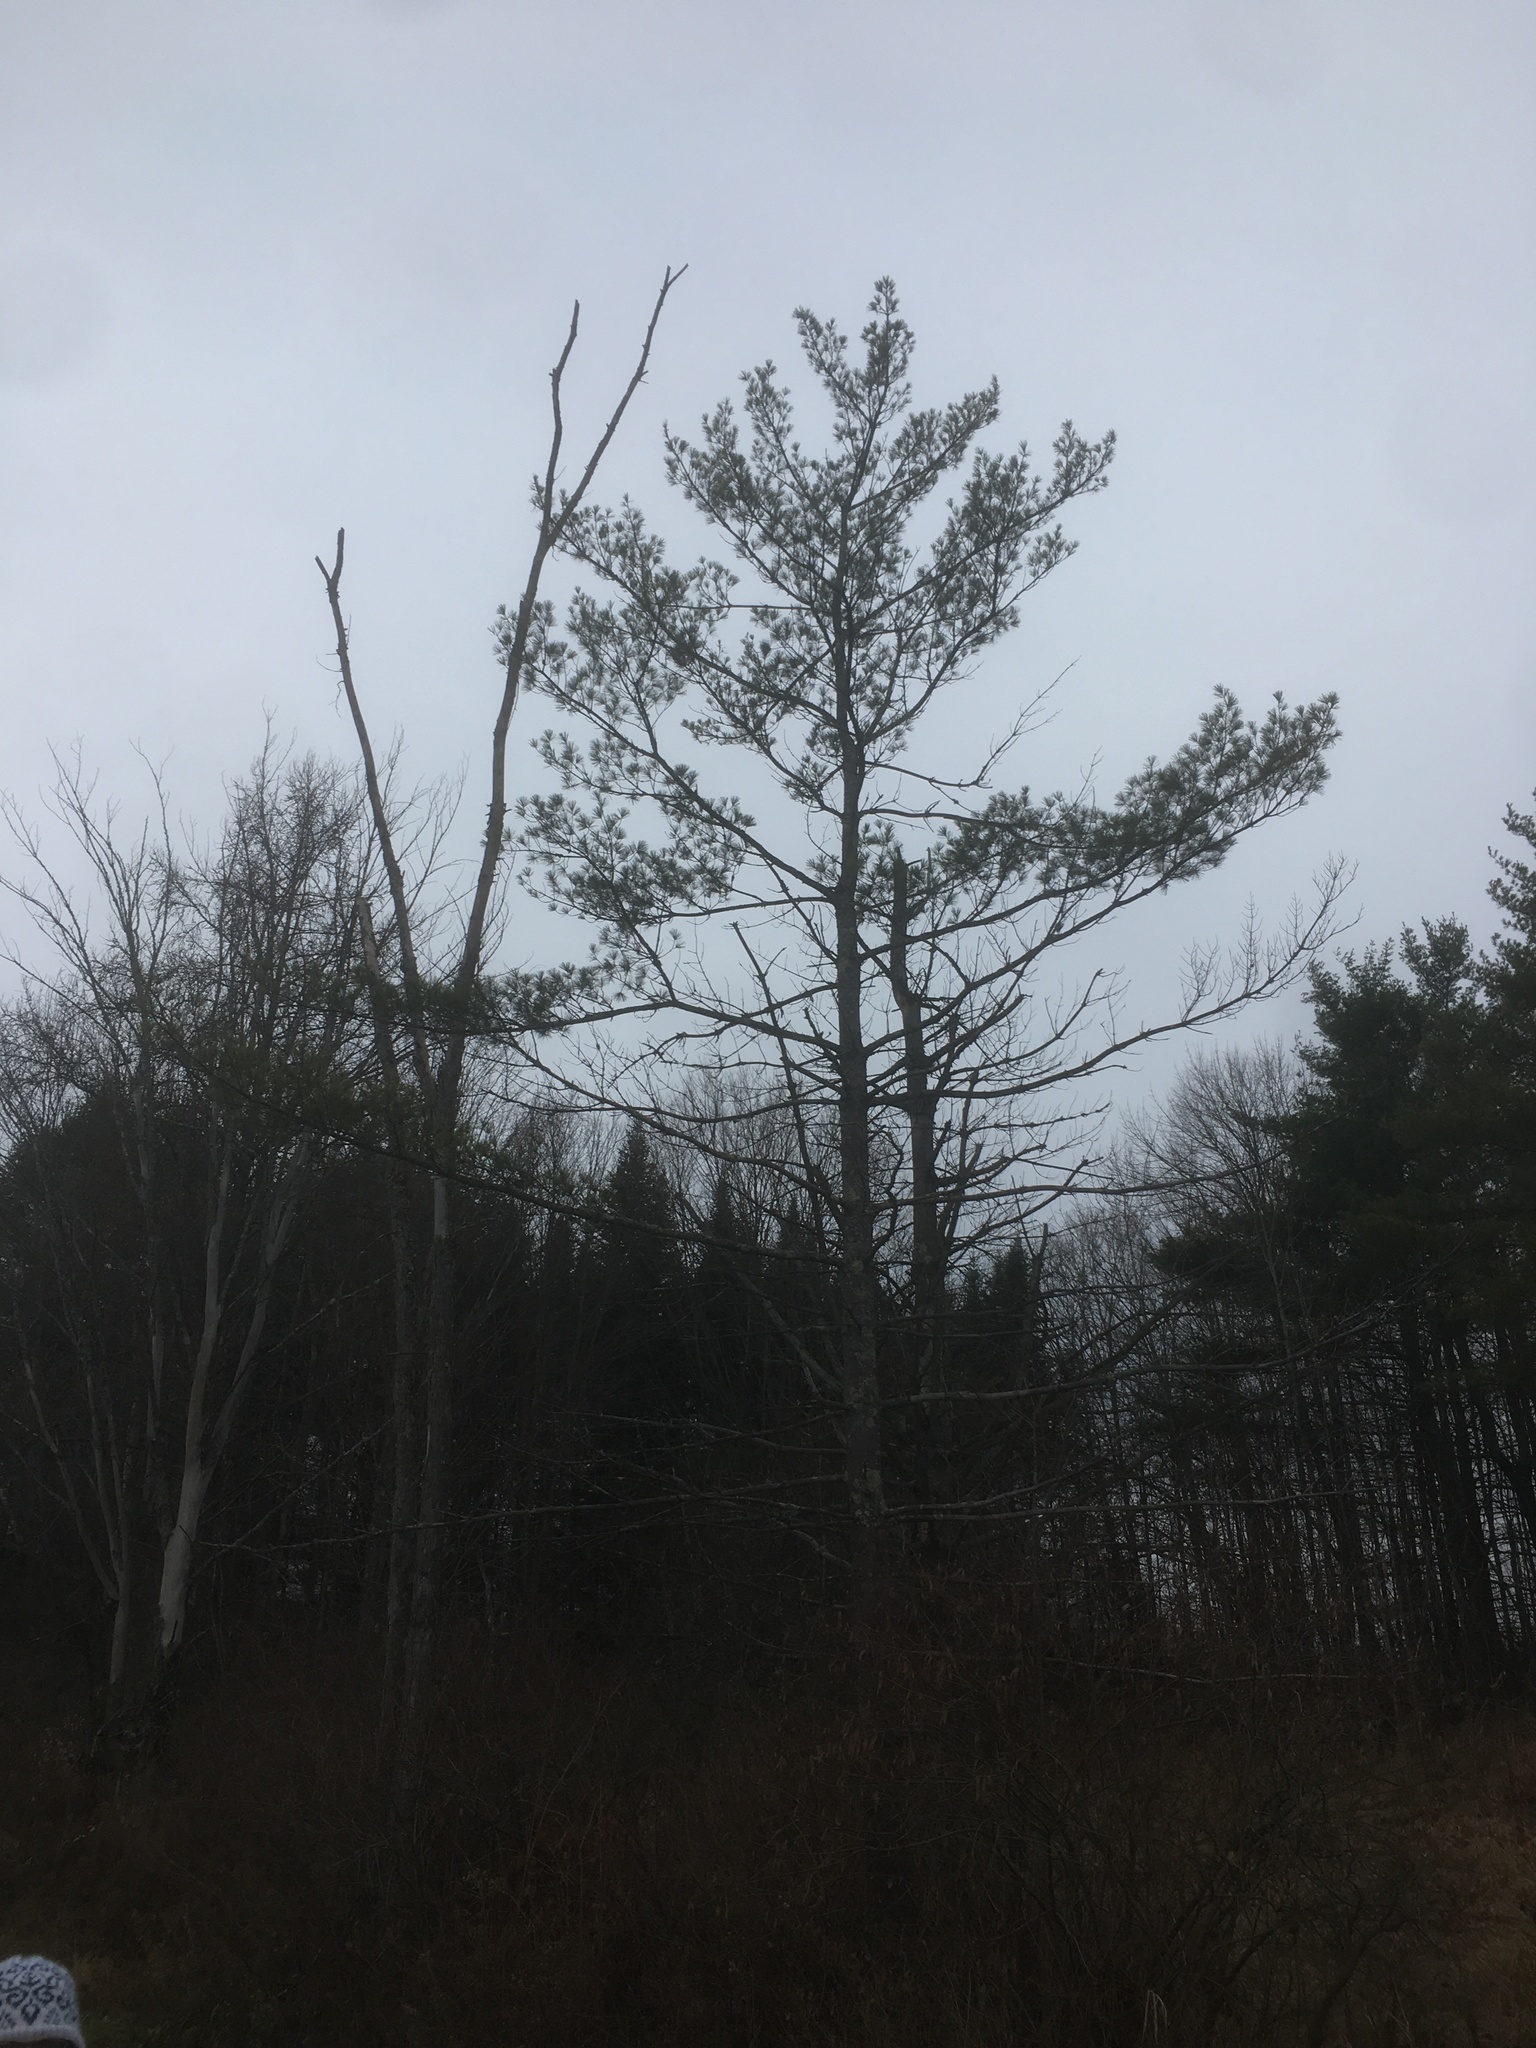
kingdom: Plantae
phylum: Tracheophyta
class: Pinopsida
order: Pinales
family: Pinaceae
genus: Pinus
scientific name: Pinus strobus
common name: Weymouth pine
